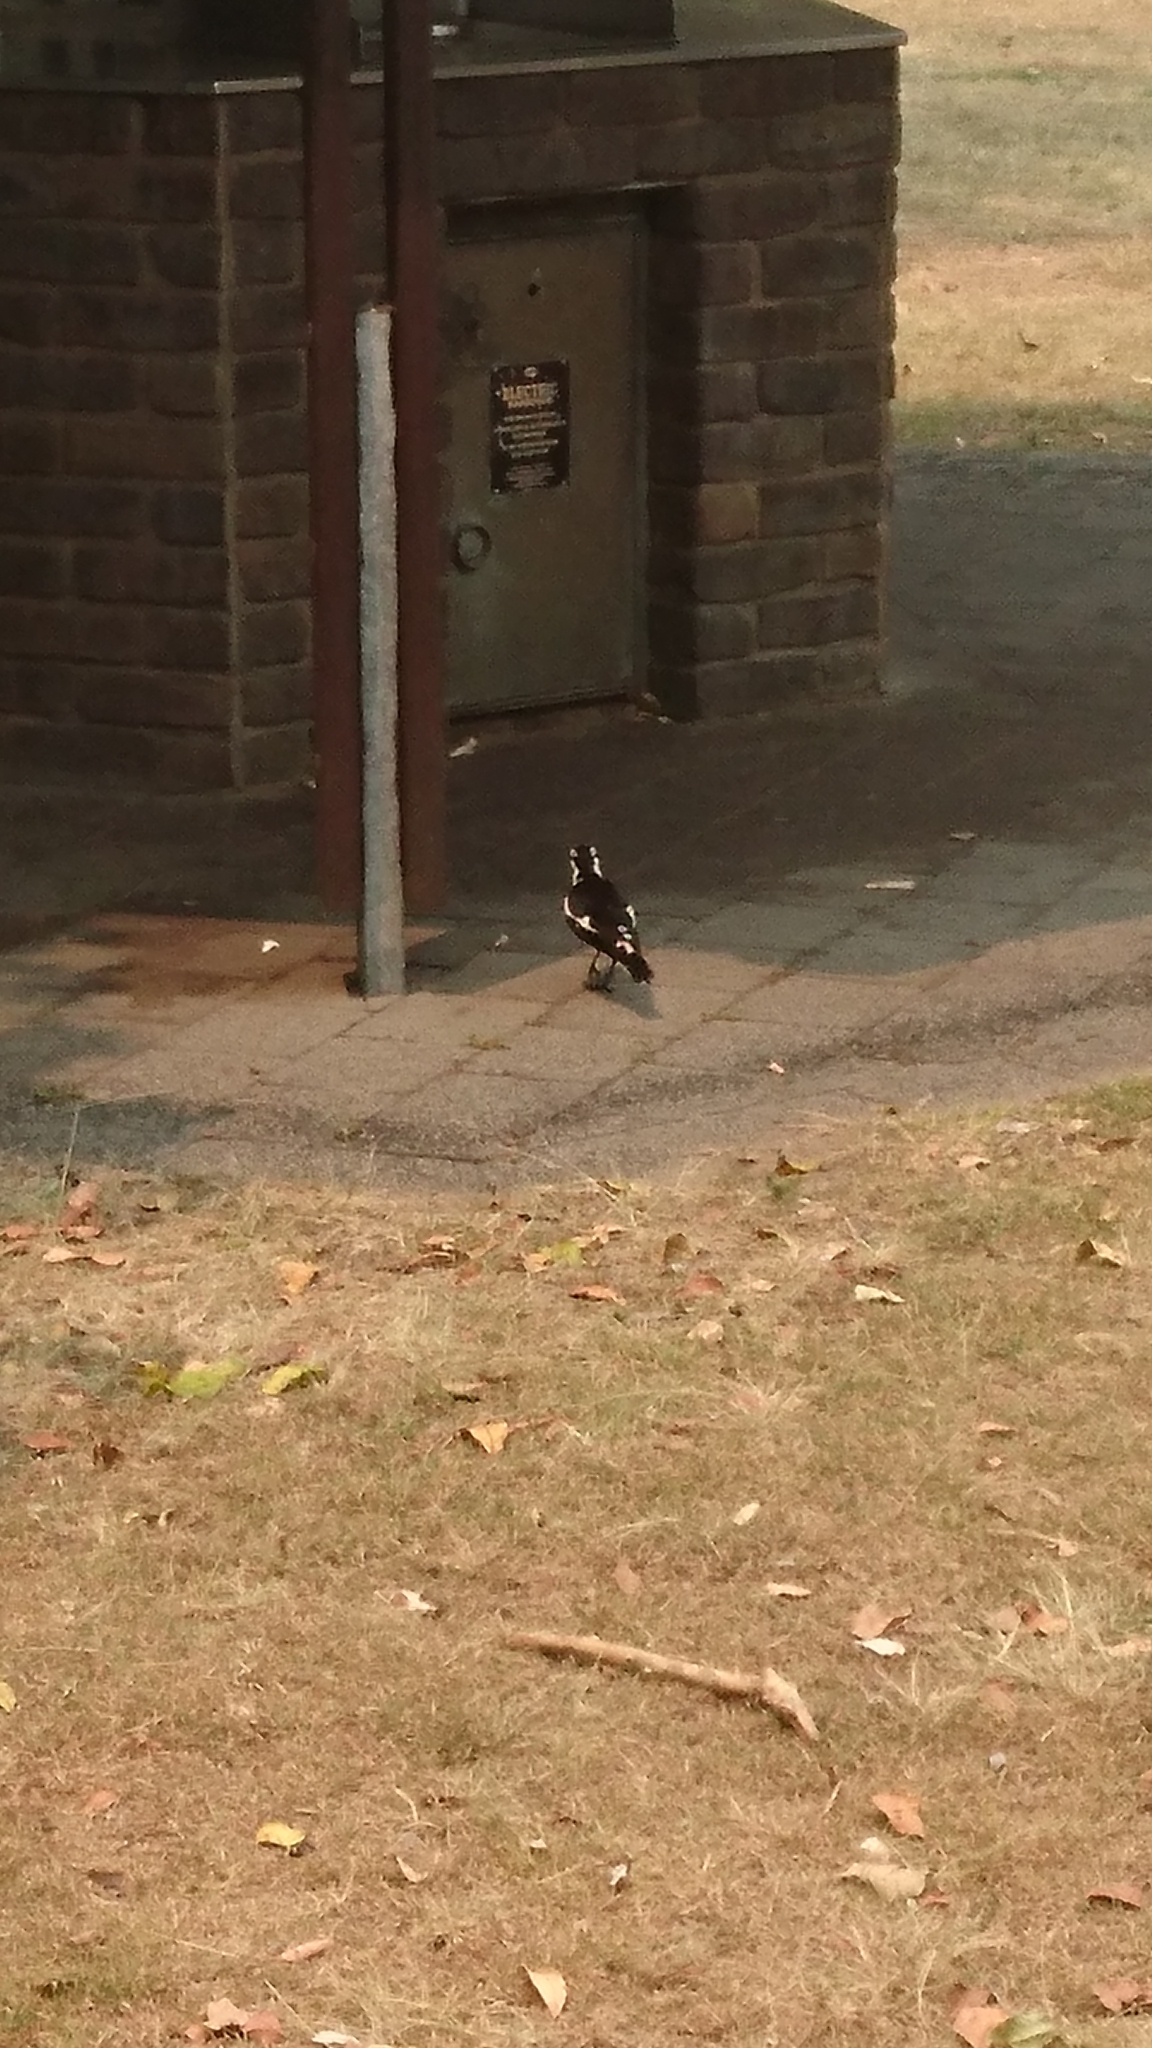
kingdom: Animalia
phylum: Chordata
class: Aves
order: Passeriformes
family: Monarchidae
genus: Grallina
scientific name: Grallina cyanoleuca
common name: Magpie-lark
